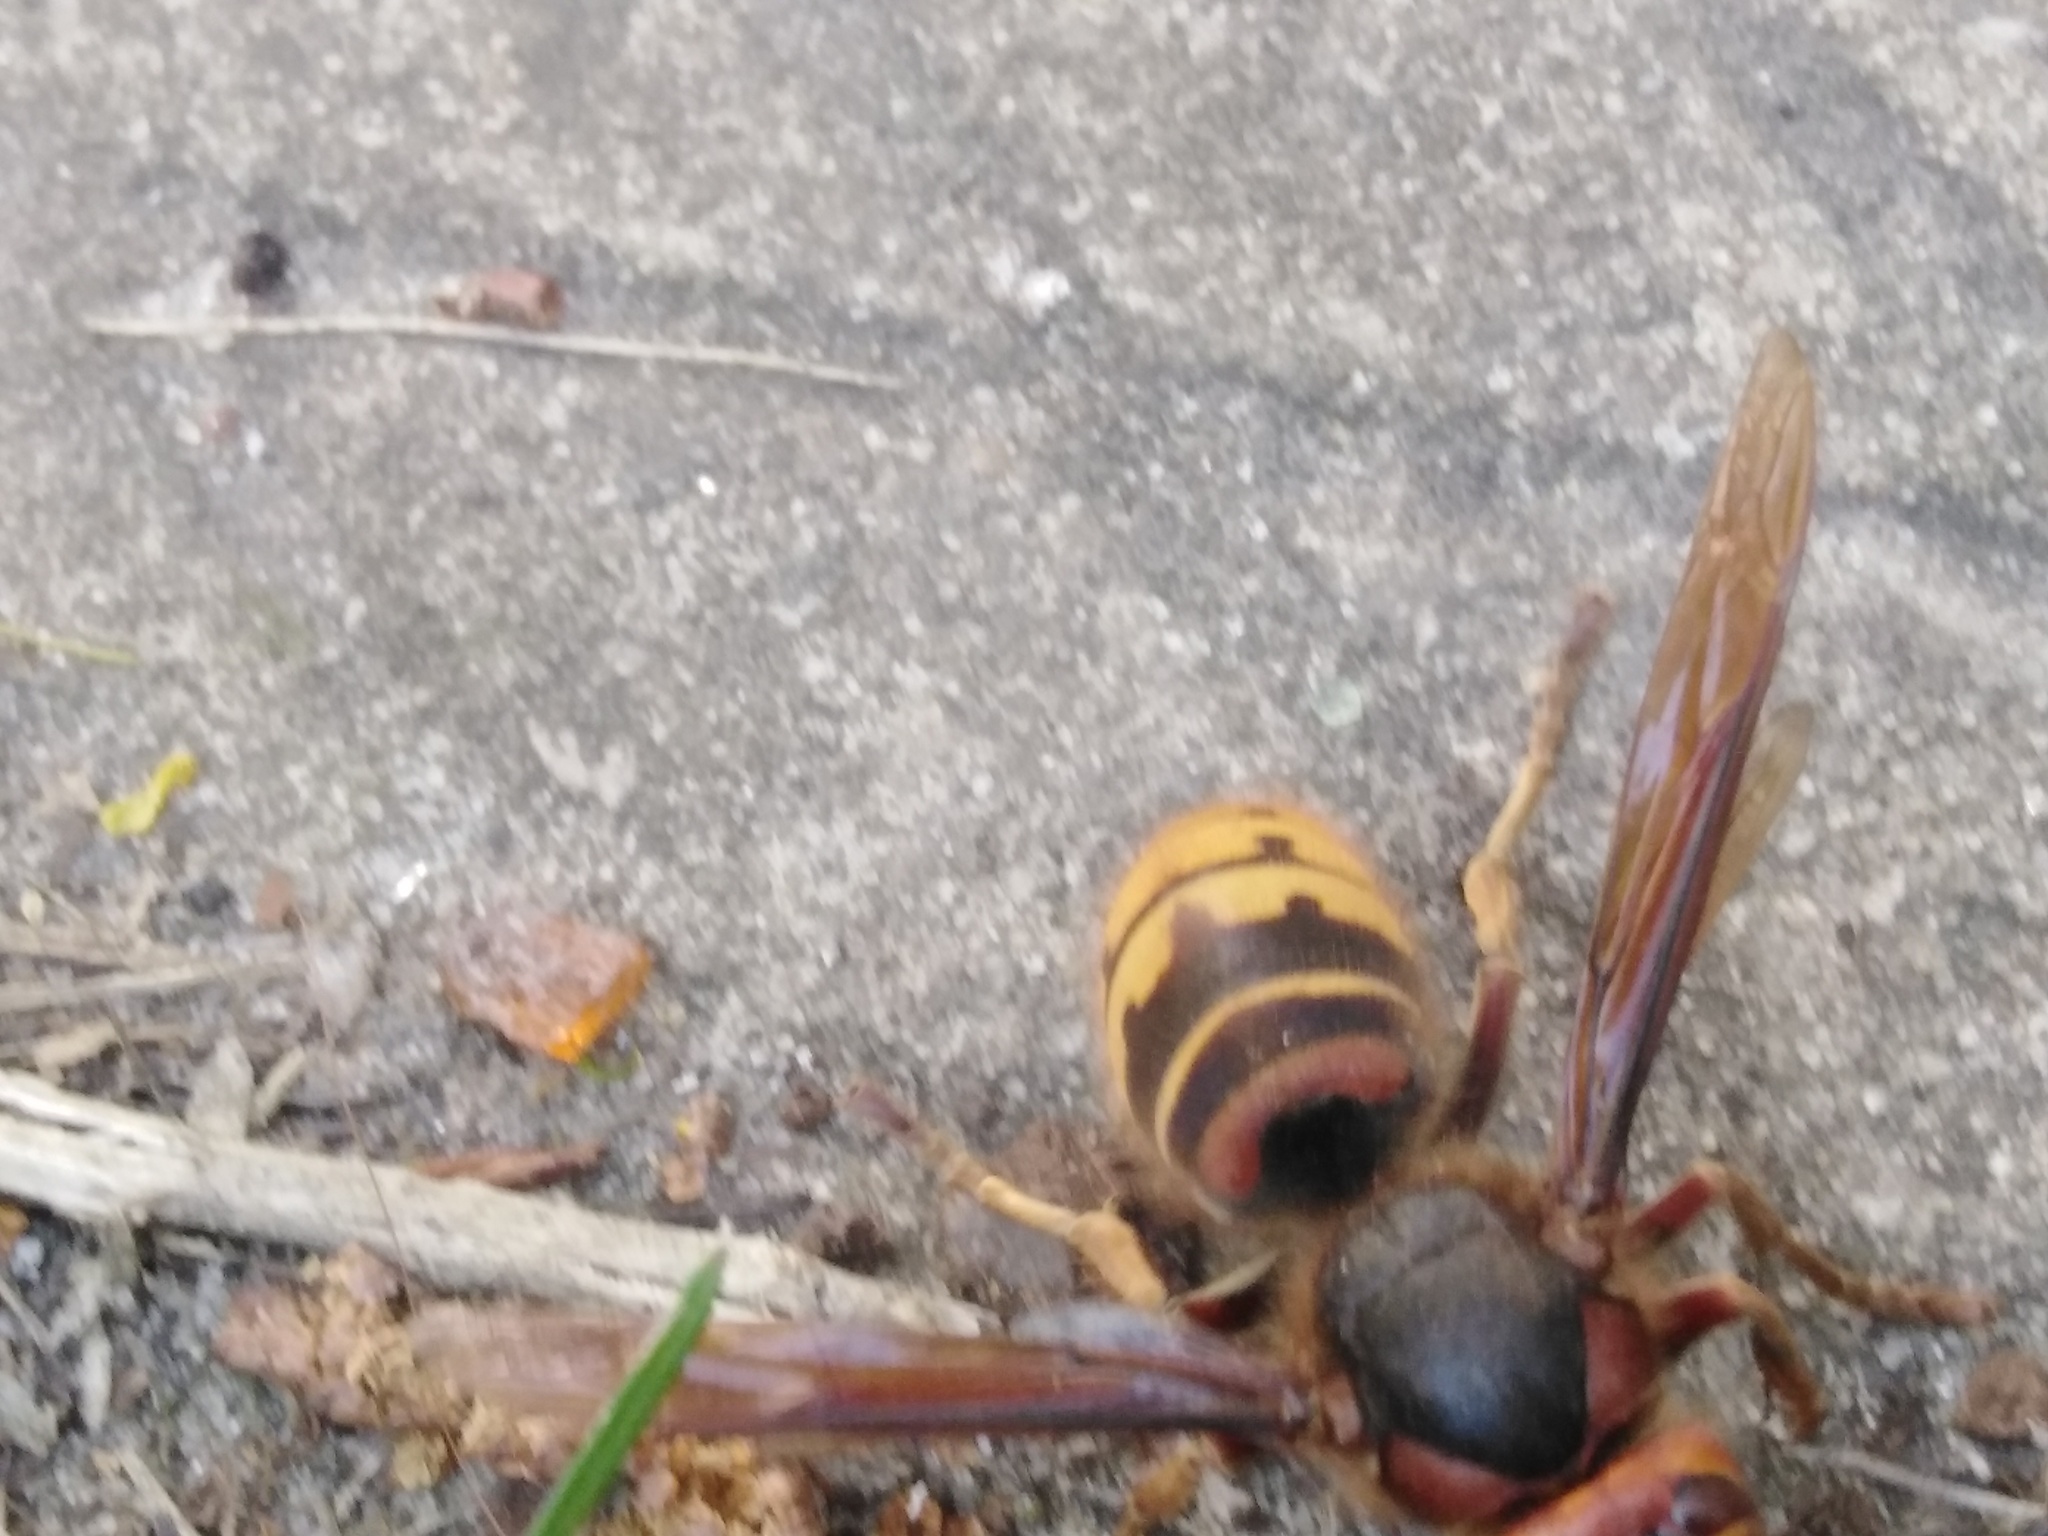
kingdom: Animalia
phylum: Arthropoda
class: Insecta
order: Hymenoptera
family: Vespidae
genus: Vespa
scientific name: Vespa crabro
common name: Hornet
